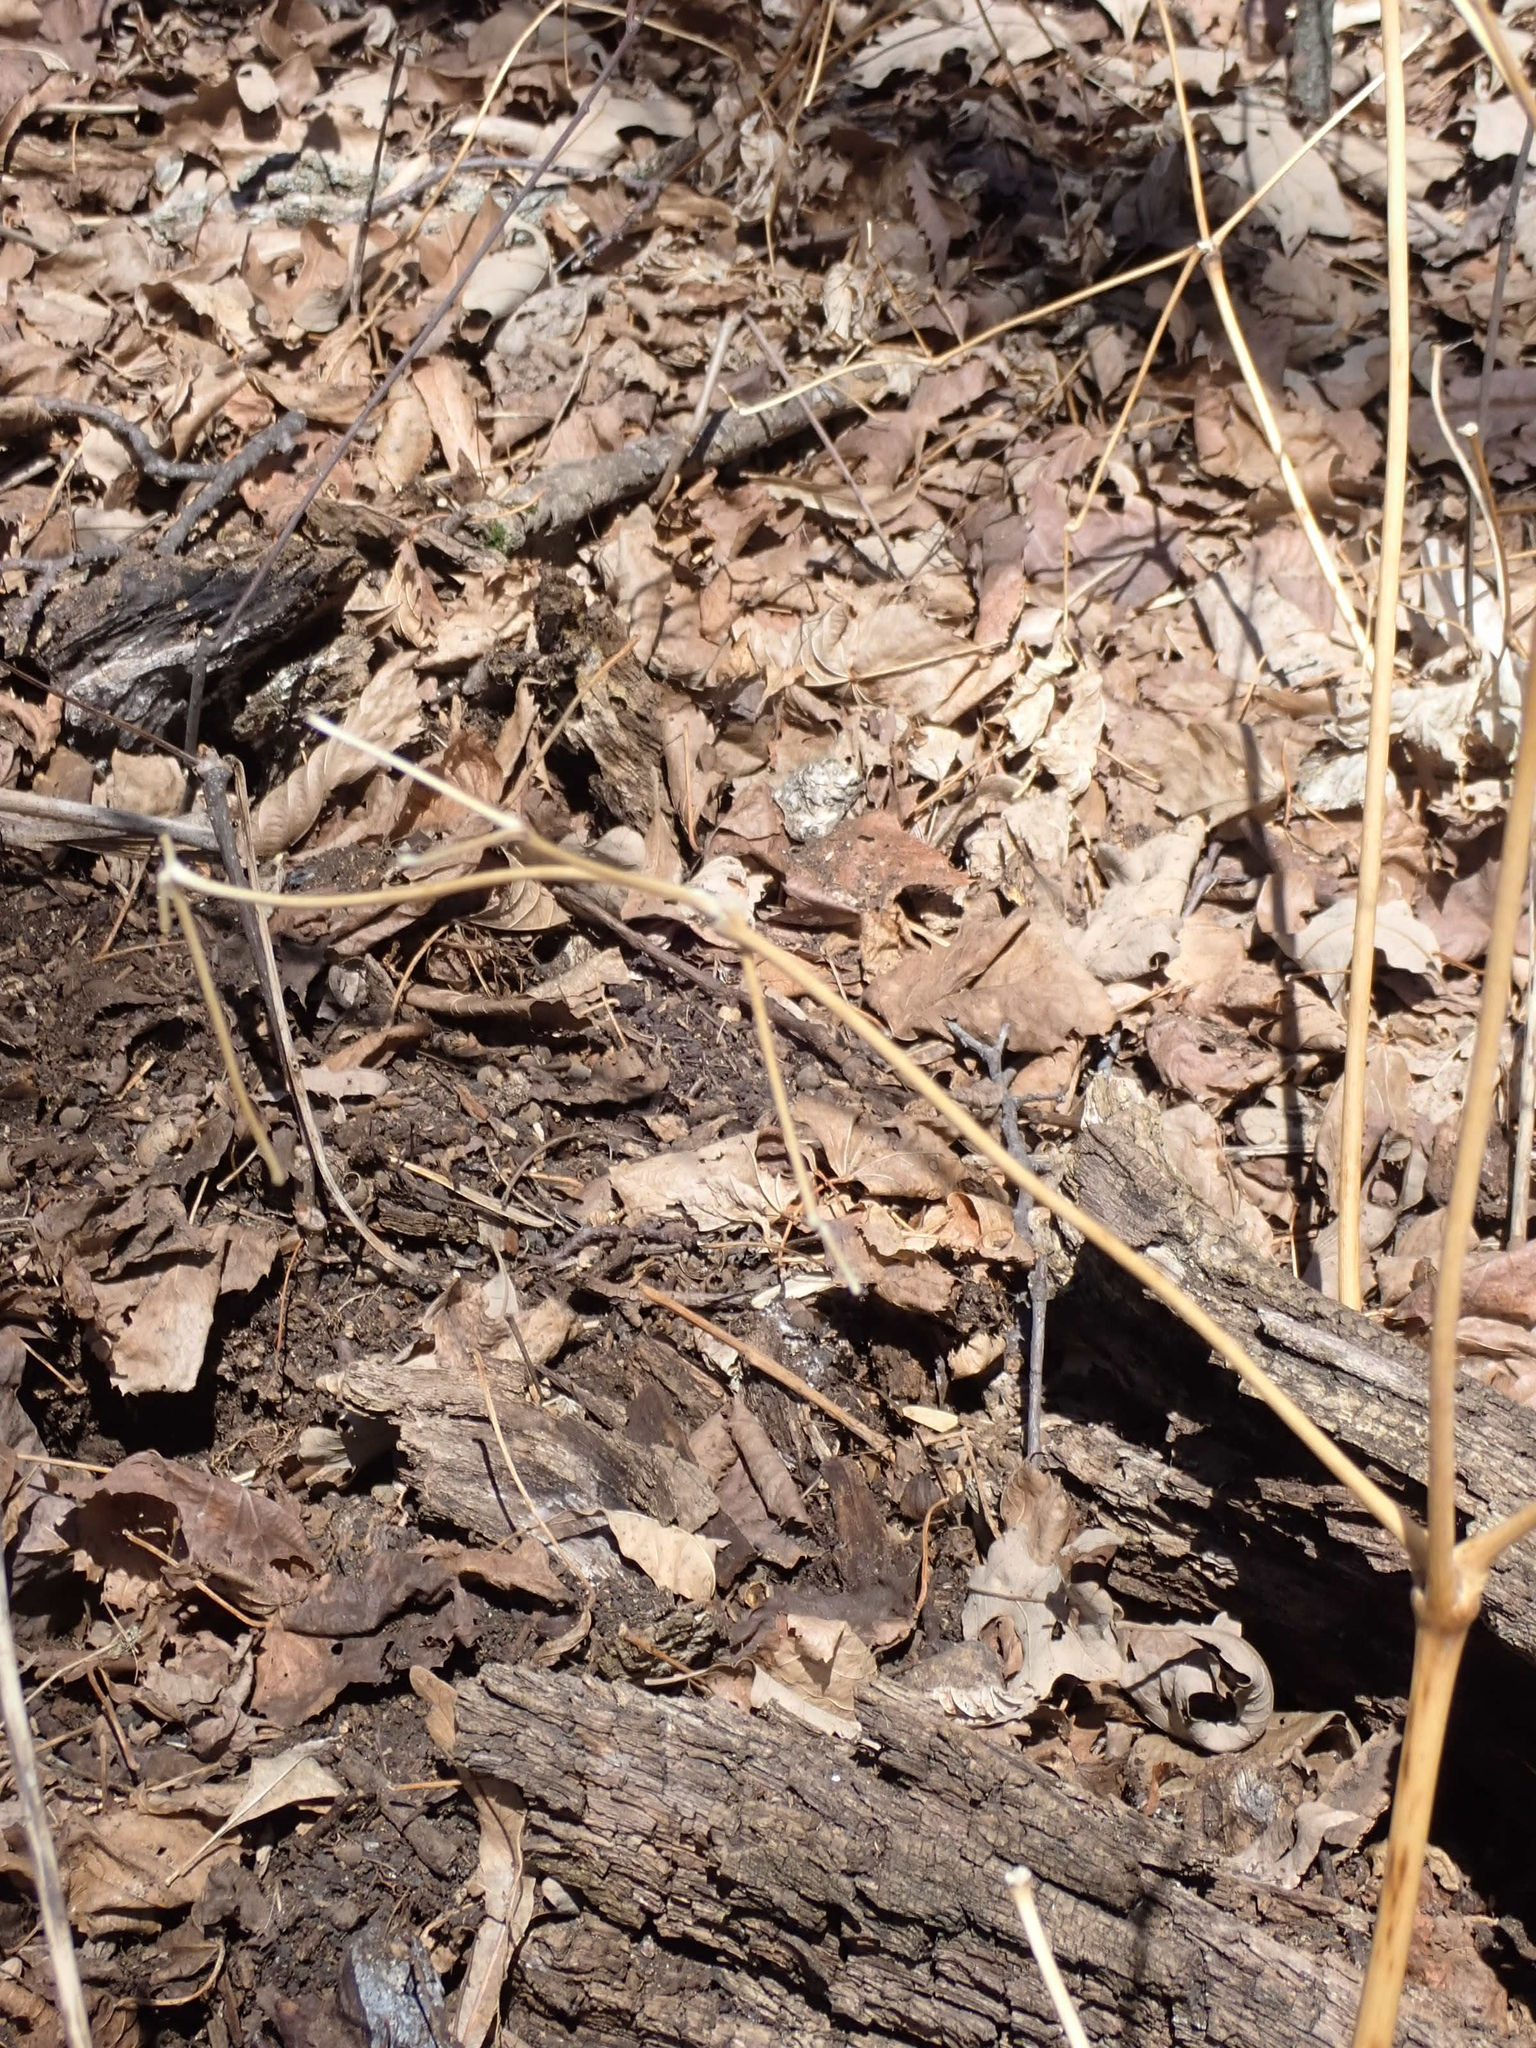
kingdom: Plantae
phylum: Tracheophyta
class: Magnoliopsida
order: Ranunculales
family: Berberidaceae
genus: Caulophyllum
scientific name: Caulophyllum thalictroides
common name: Blue cohosh
